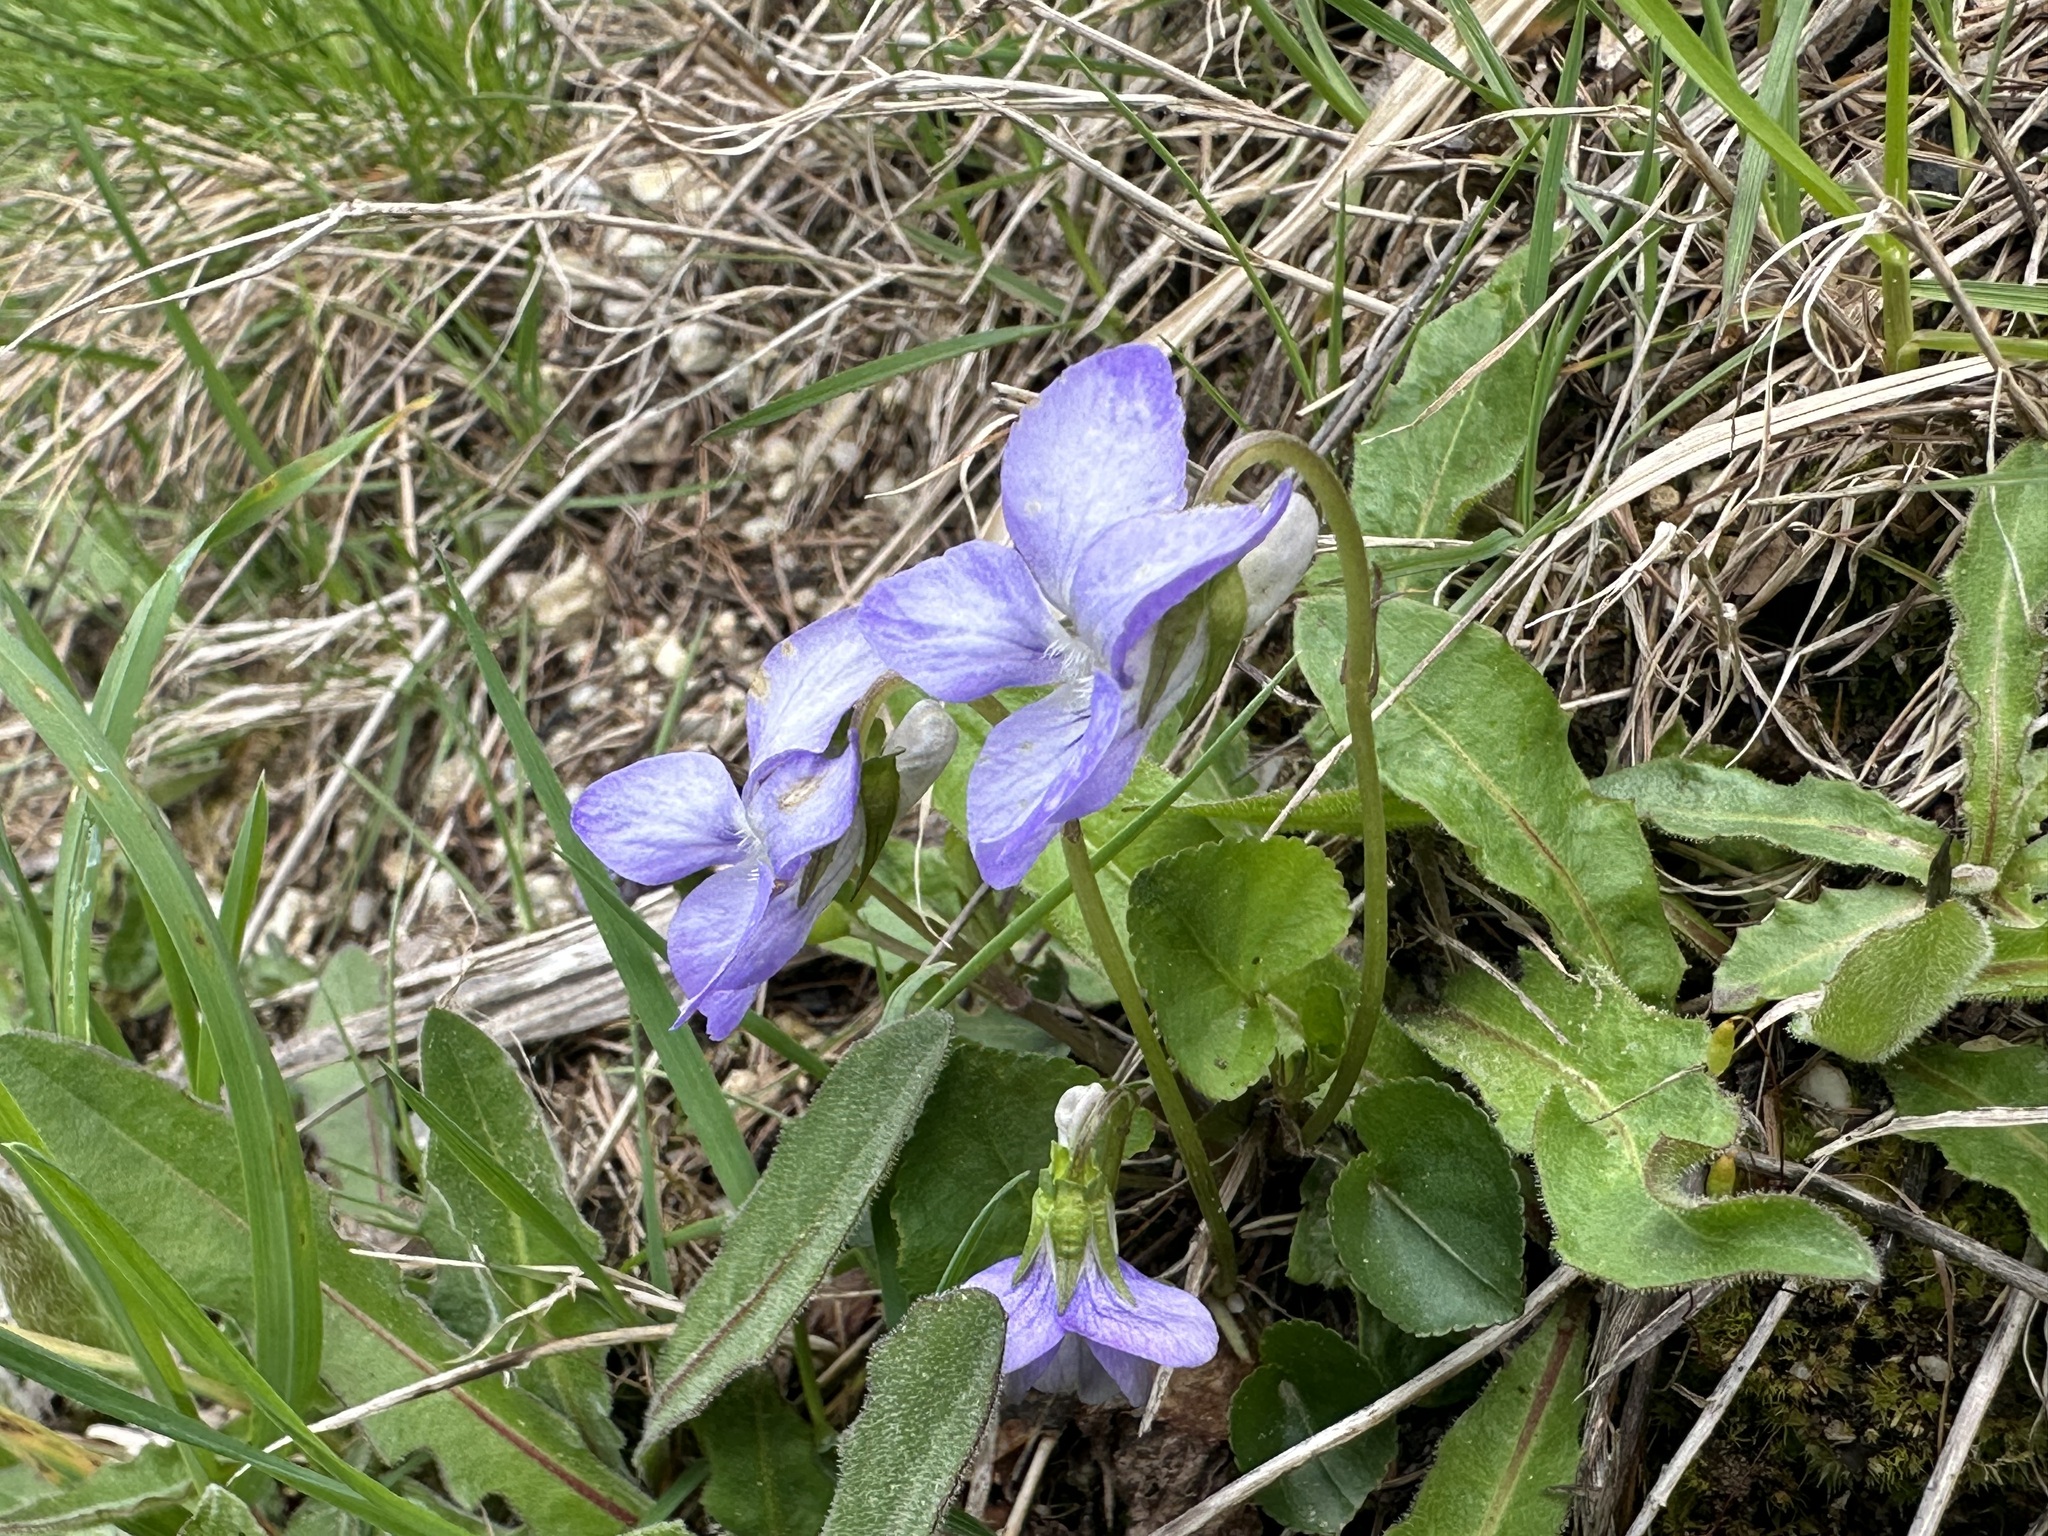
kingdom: Plantae
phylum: Tracheophyta
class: Magnoliopsida
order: Malpighiales
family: Violaceae
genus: Viola
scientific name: Viola riviniana
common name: Common dog-violet
